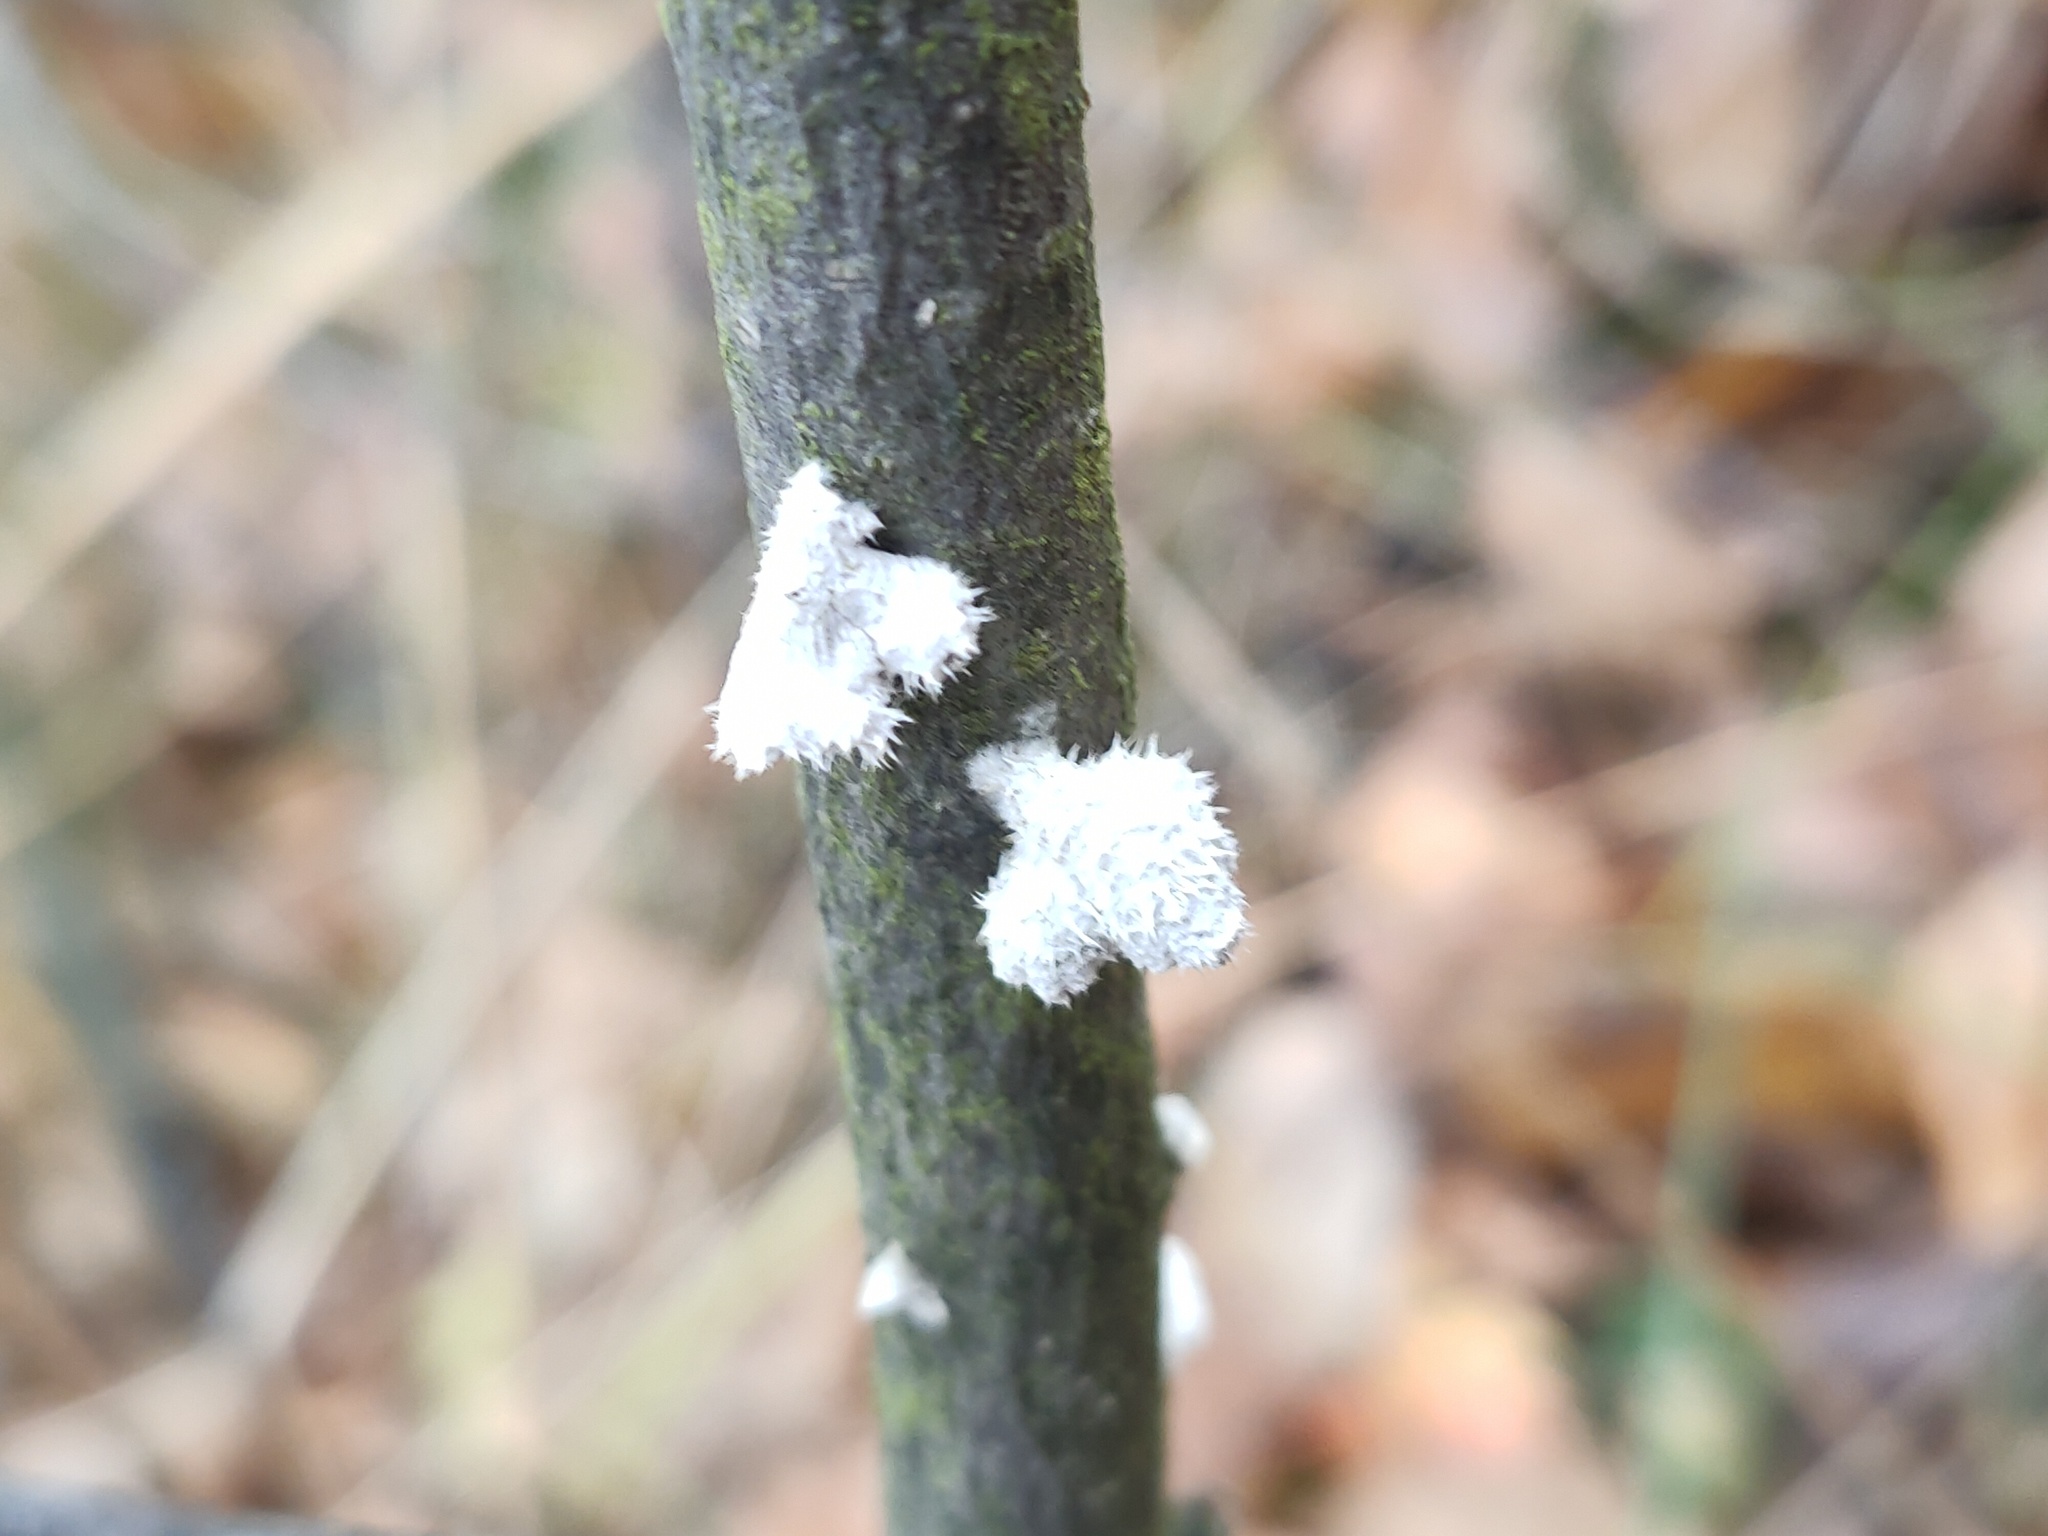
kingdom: Fungi
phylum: Basidiomycota
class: Agaricomycetes
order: Agaricales
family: Schizophyllaceae
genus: Schizophyllum
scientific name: Schizophyllum commune
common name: Common porecrust
